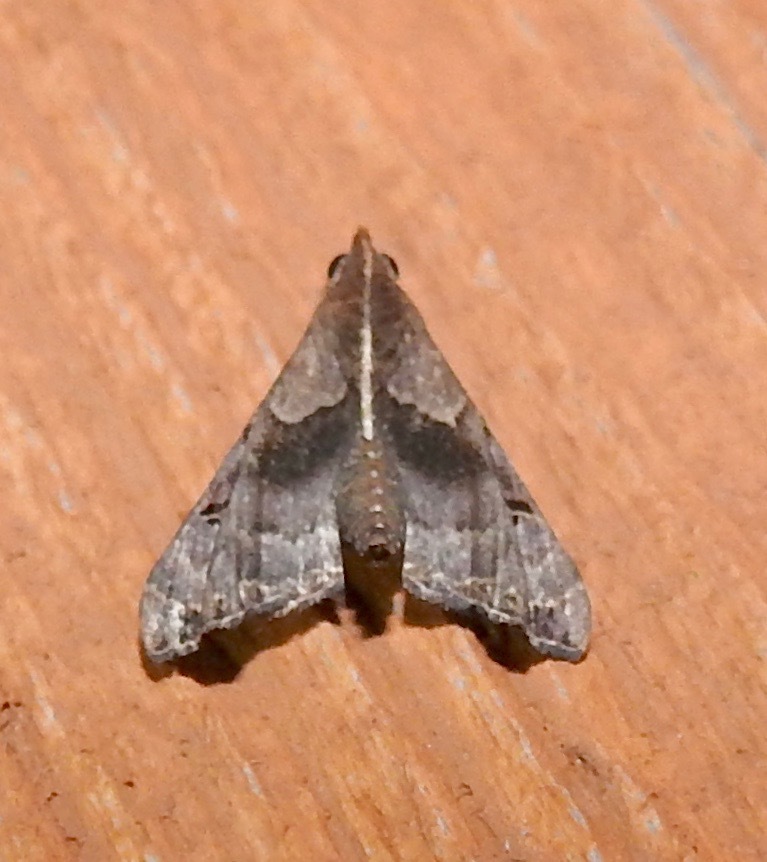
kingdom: Animalia
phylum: Arthropoda
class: Insecta
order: Lepidoptera
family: Erebidae
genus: Palthis
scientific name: Palthis asopialis
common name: Faint-spotted palthis moth
